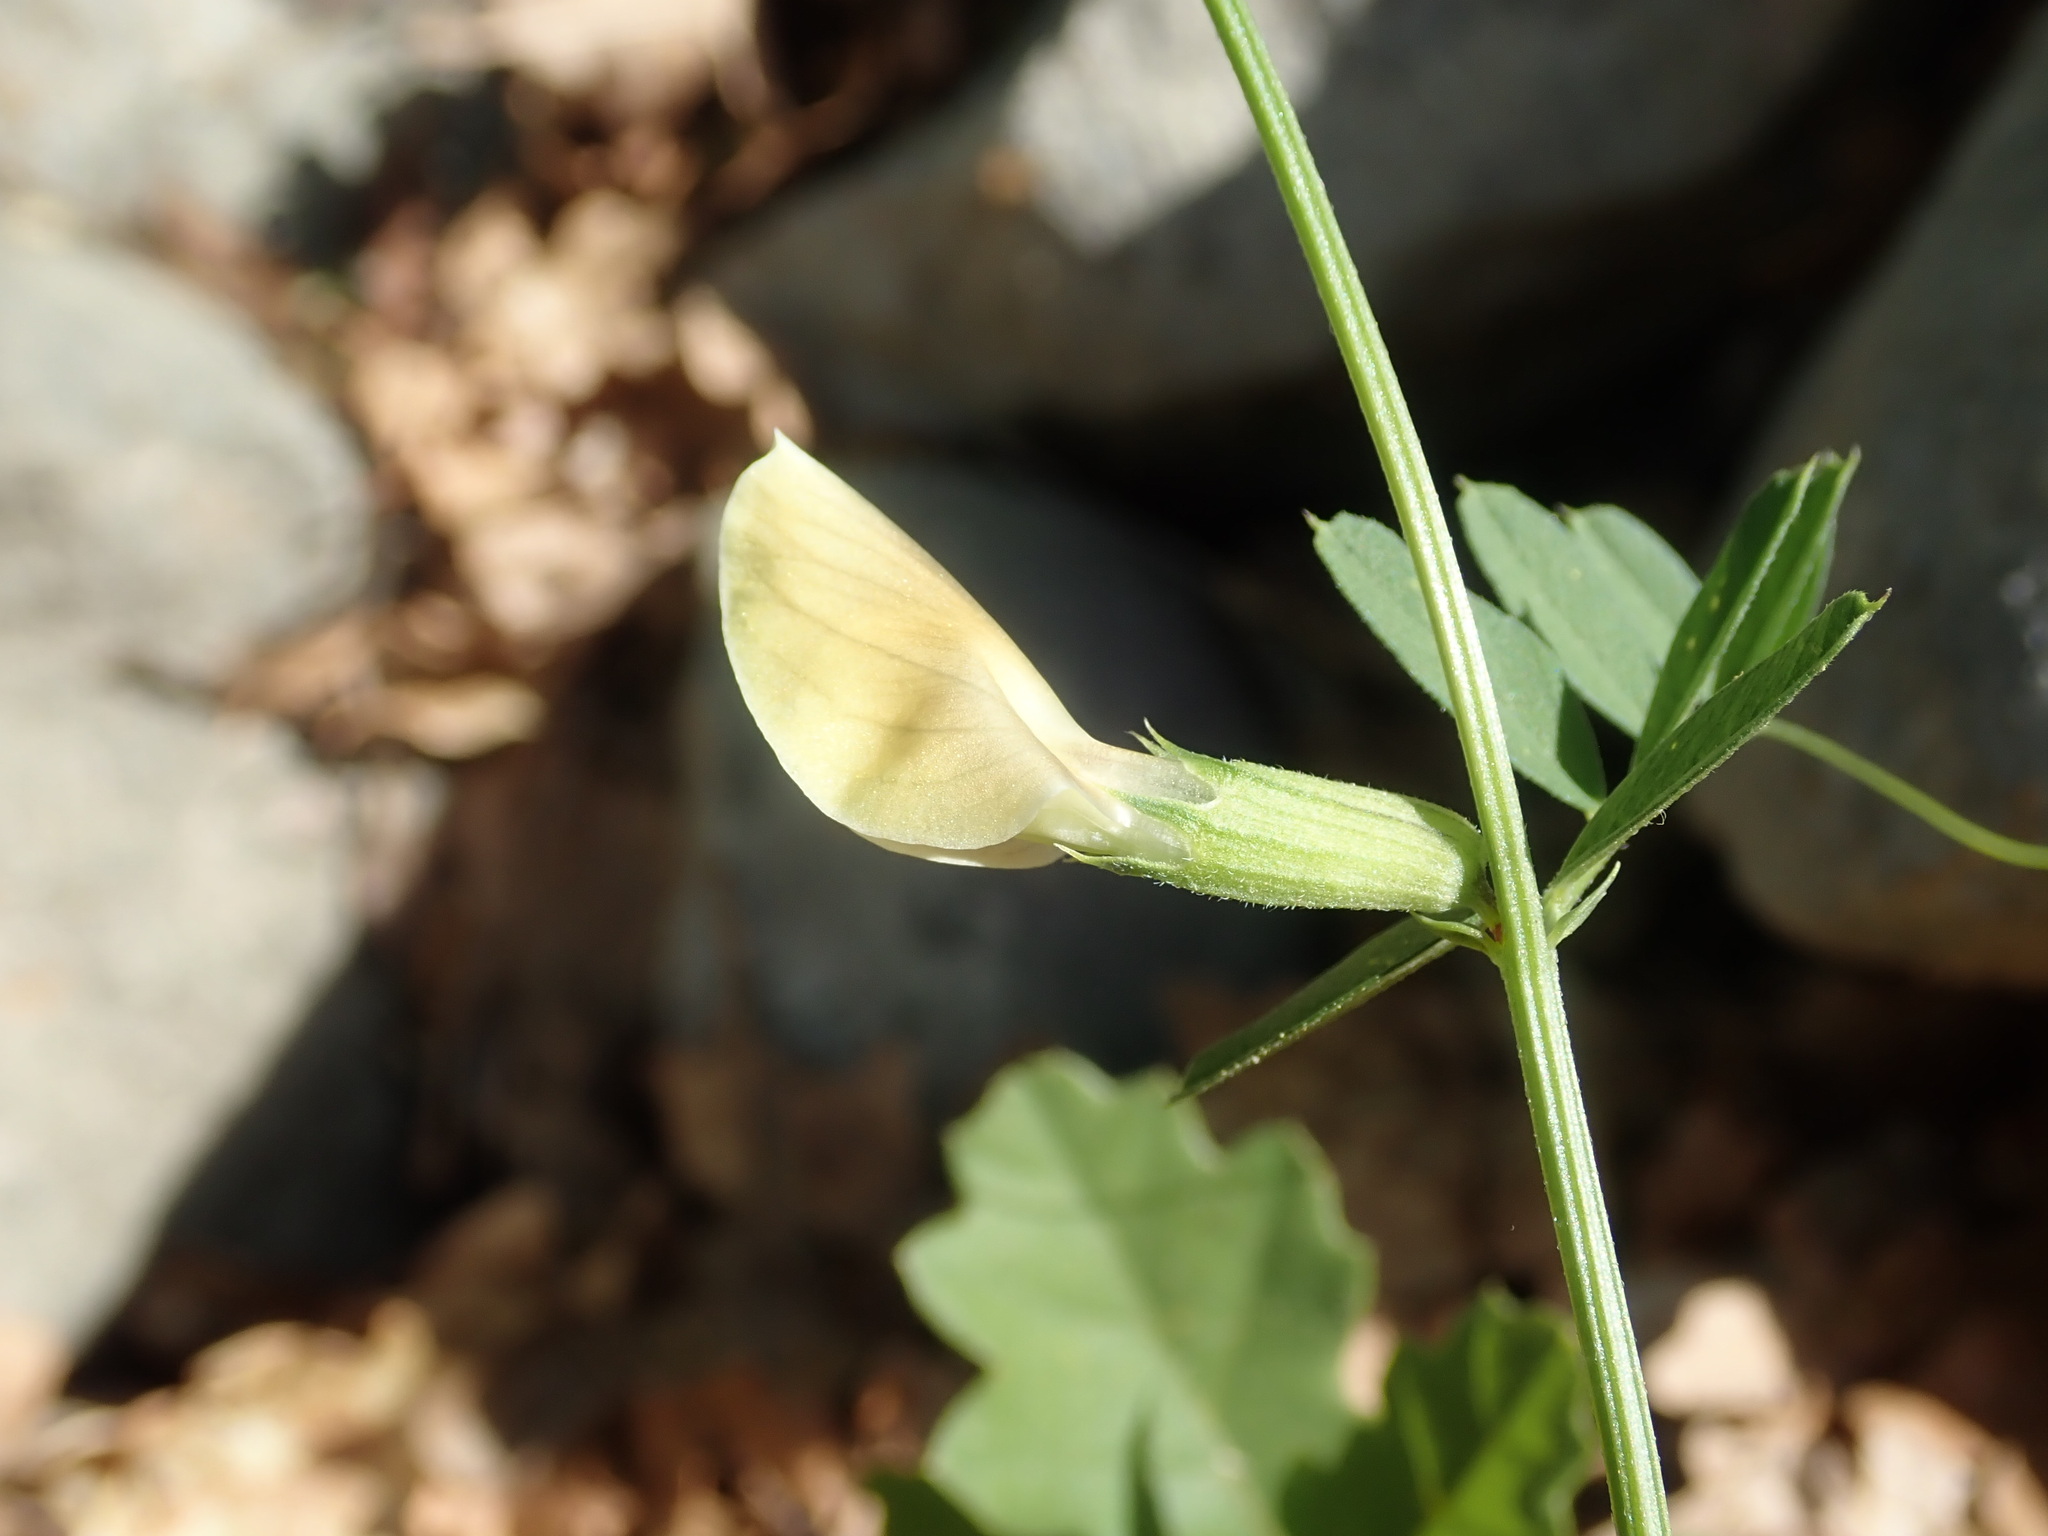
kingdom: Plantae
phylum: Tracheophyta
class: Magnoliopsida
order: Fabales
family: Fabaceae
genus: Vicia
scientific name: Vicia grandiflora
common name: Large yellow vetch
